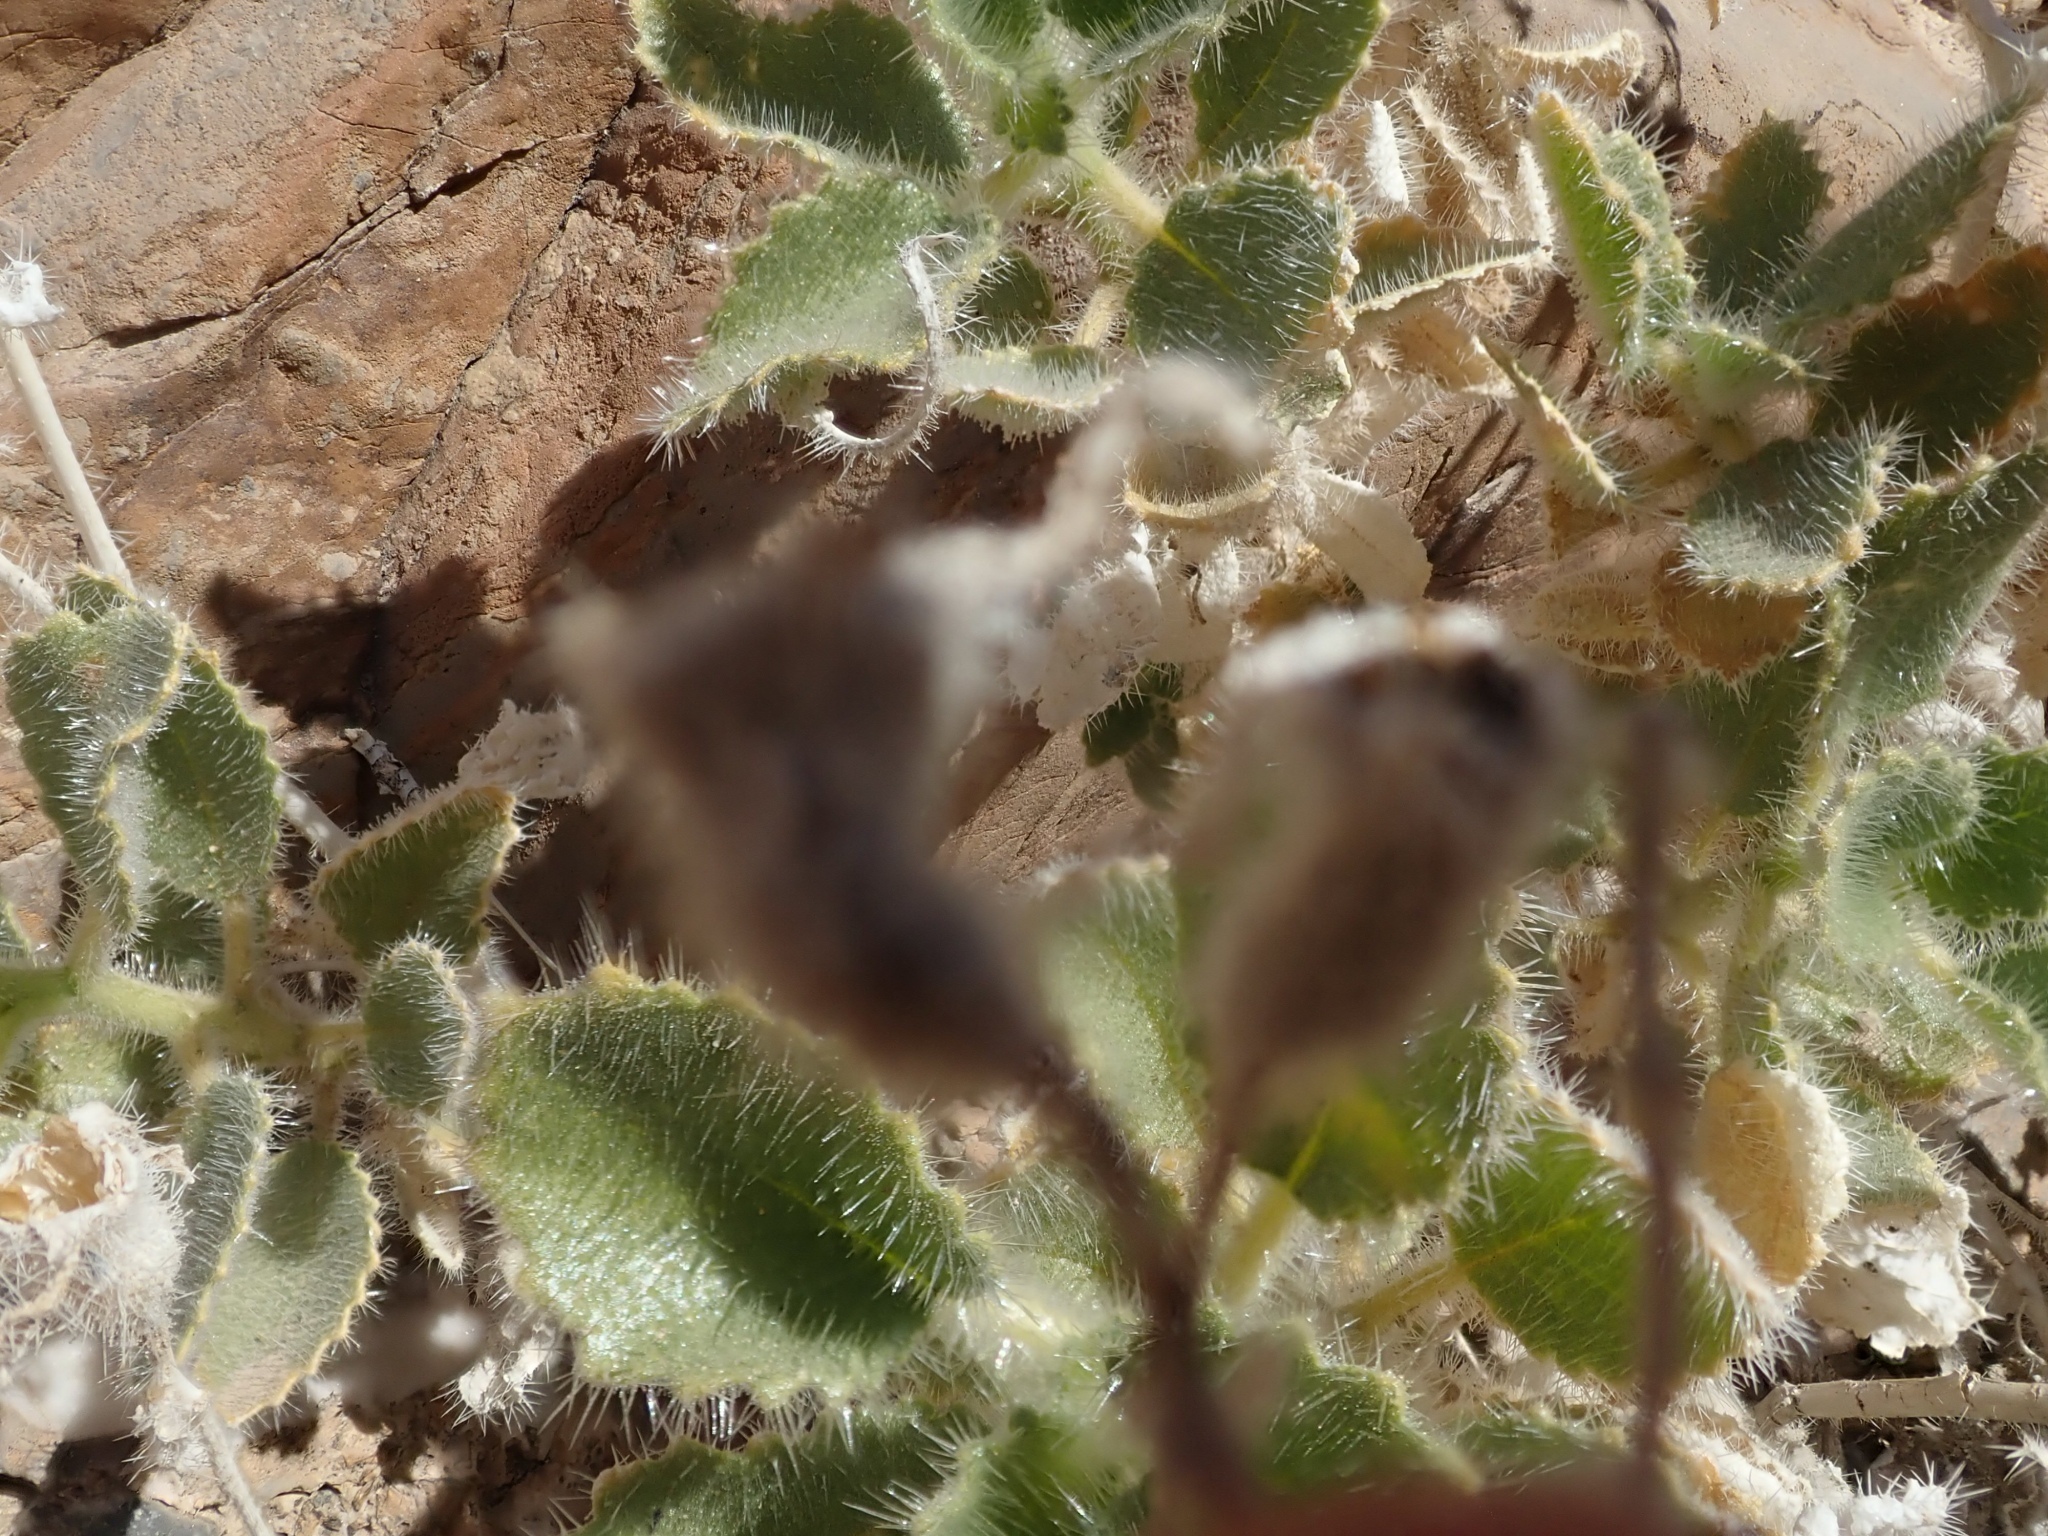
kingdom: Plantae
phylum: Tracheophyta
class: Magnoliopsida
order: Cornales
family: Loasaceae
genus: Eucnide
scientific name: Eucnide urens
